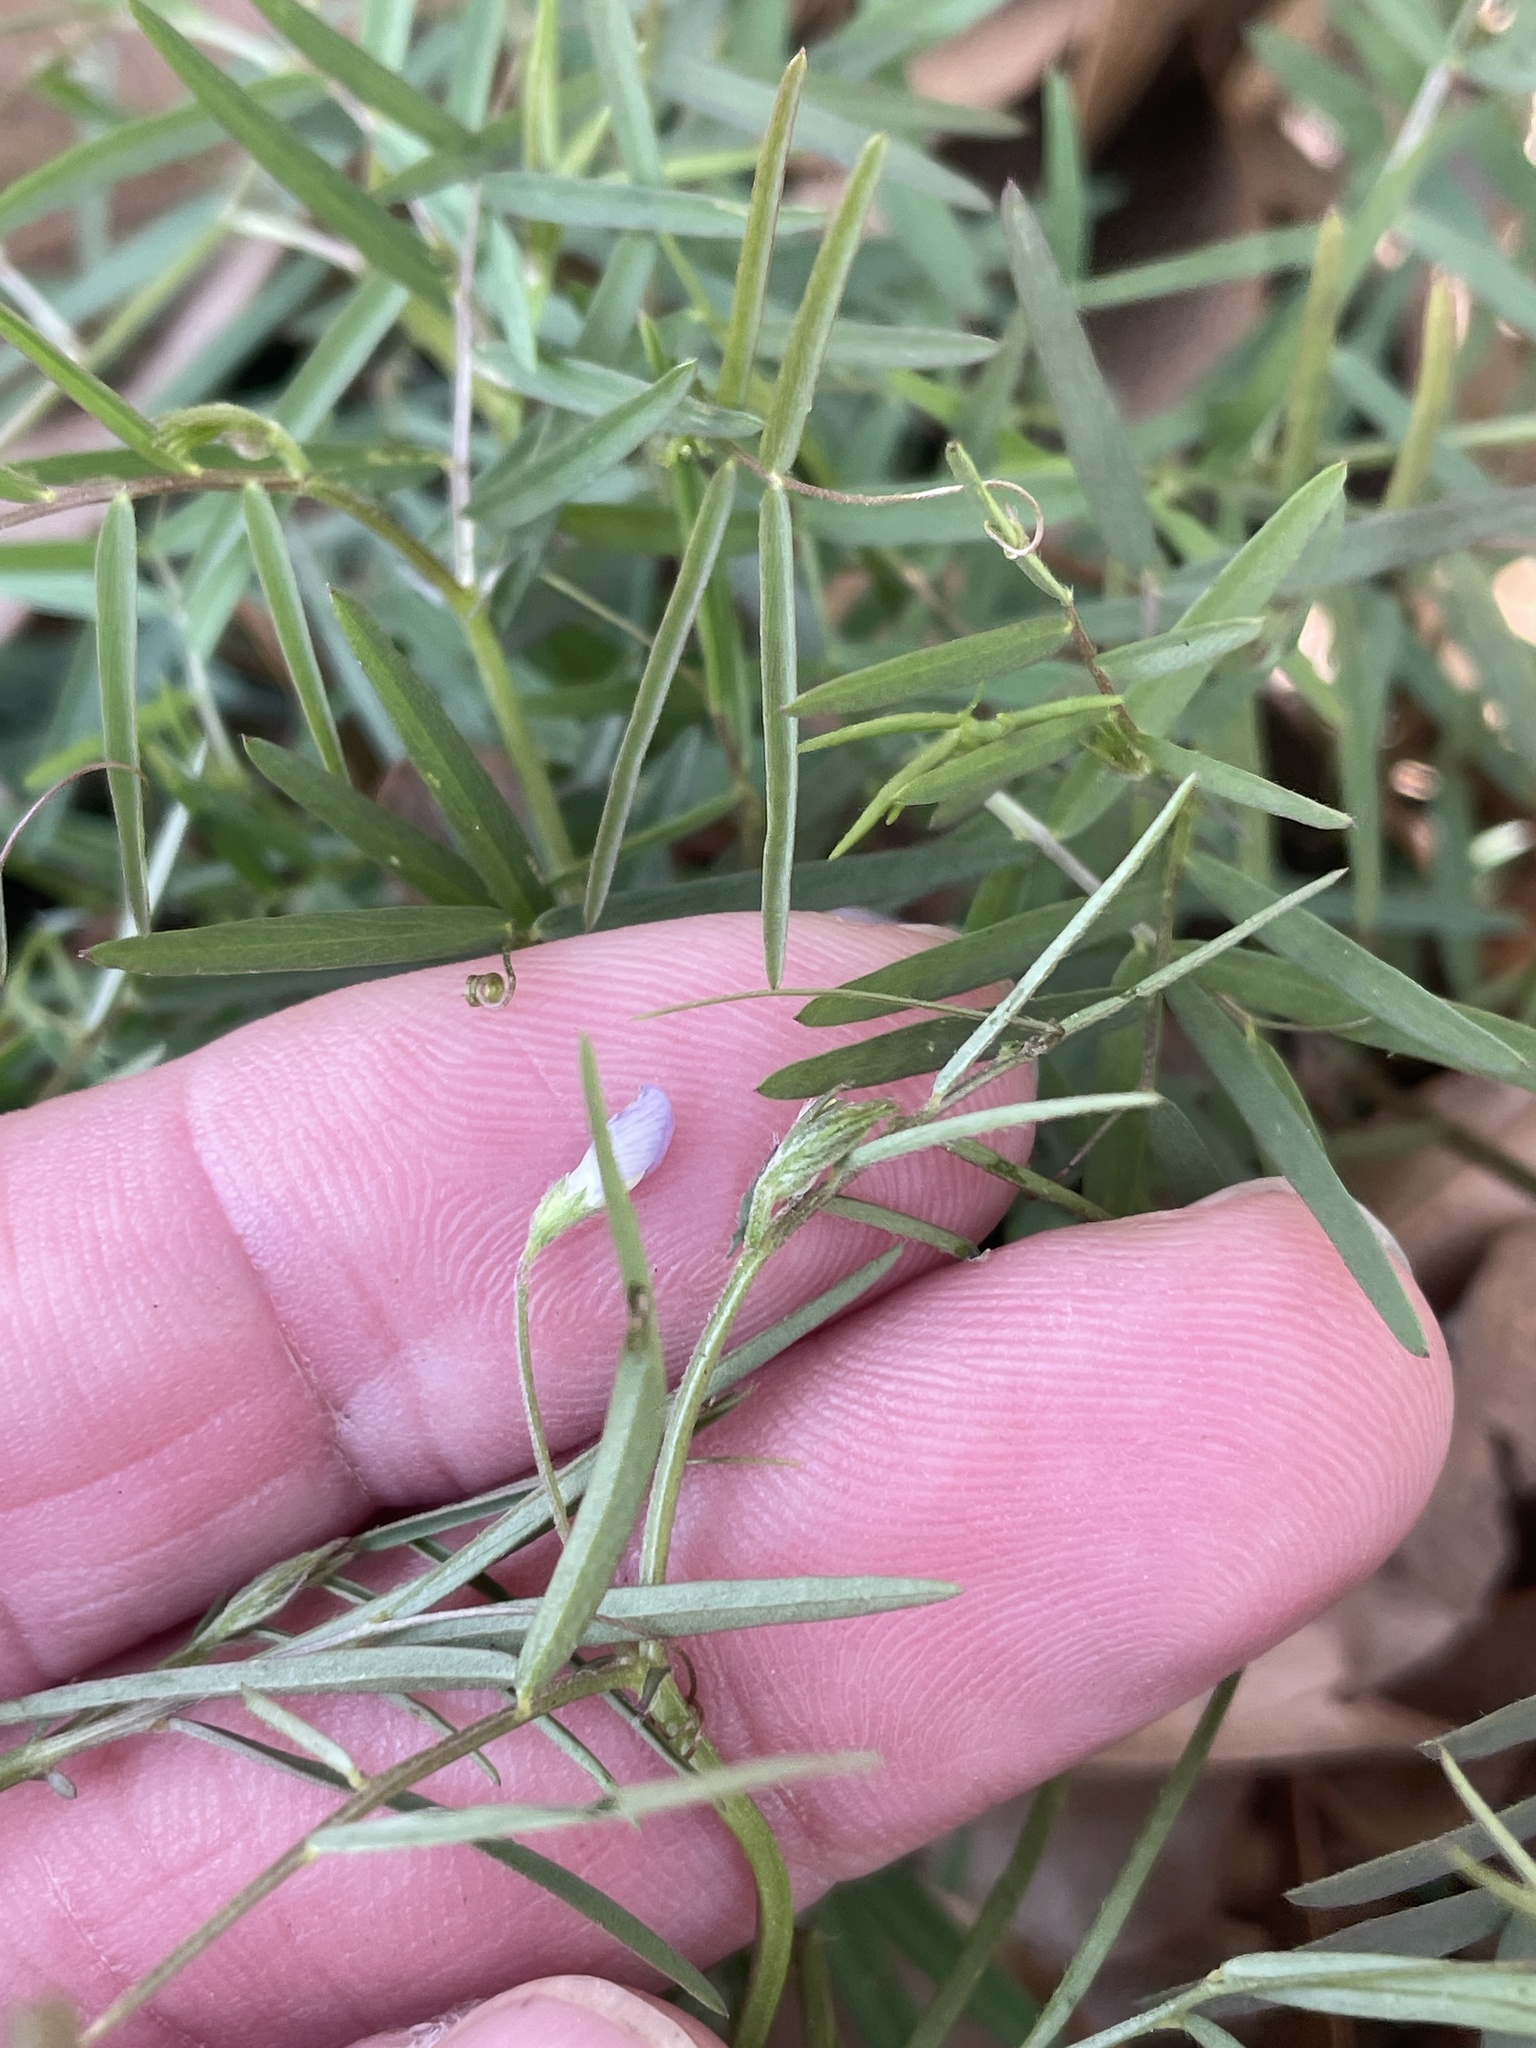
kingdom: Plantae
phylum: Tracheophyta
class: Magnoliopsida
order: Fabales
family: Fabaceae
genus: Vicia
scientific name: Vicia ludoviciana
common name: Louisiana vetch
